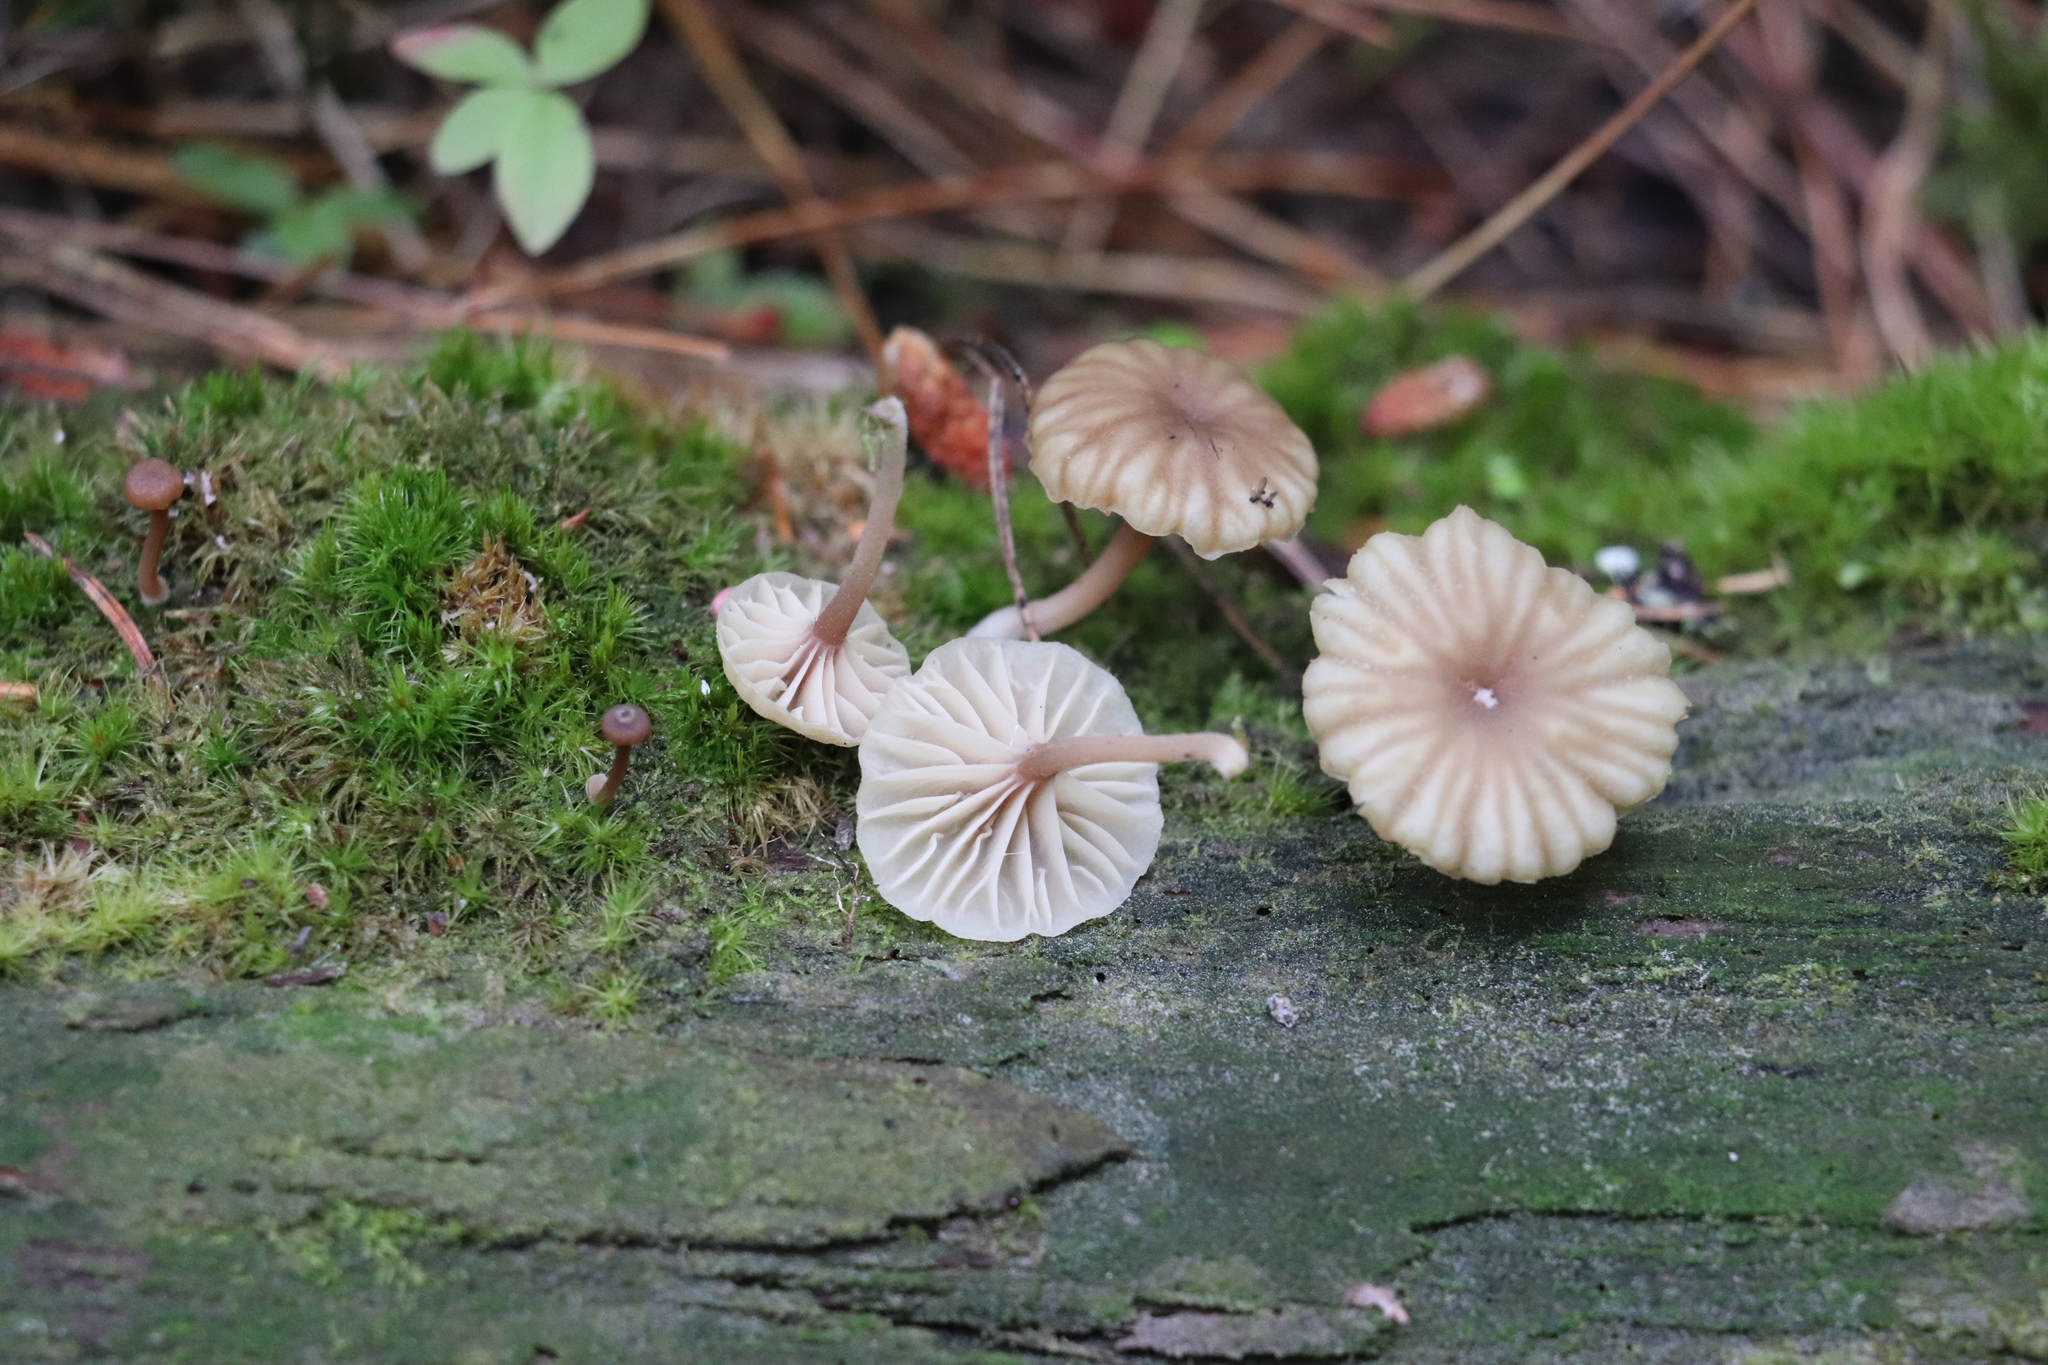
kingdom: Fungi
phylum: Basidiomycota
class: Agaricomycetes
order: Agaricales
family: Hygrophoraceae
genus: Lichenomphalia
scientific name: Lichenomphalia
